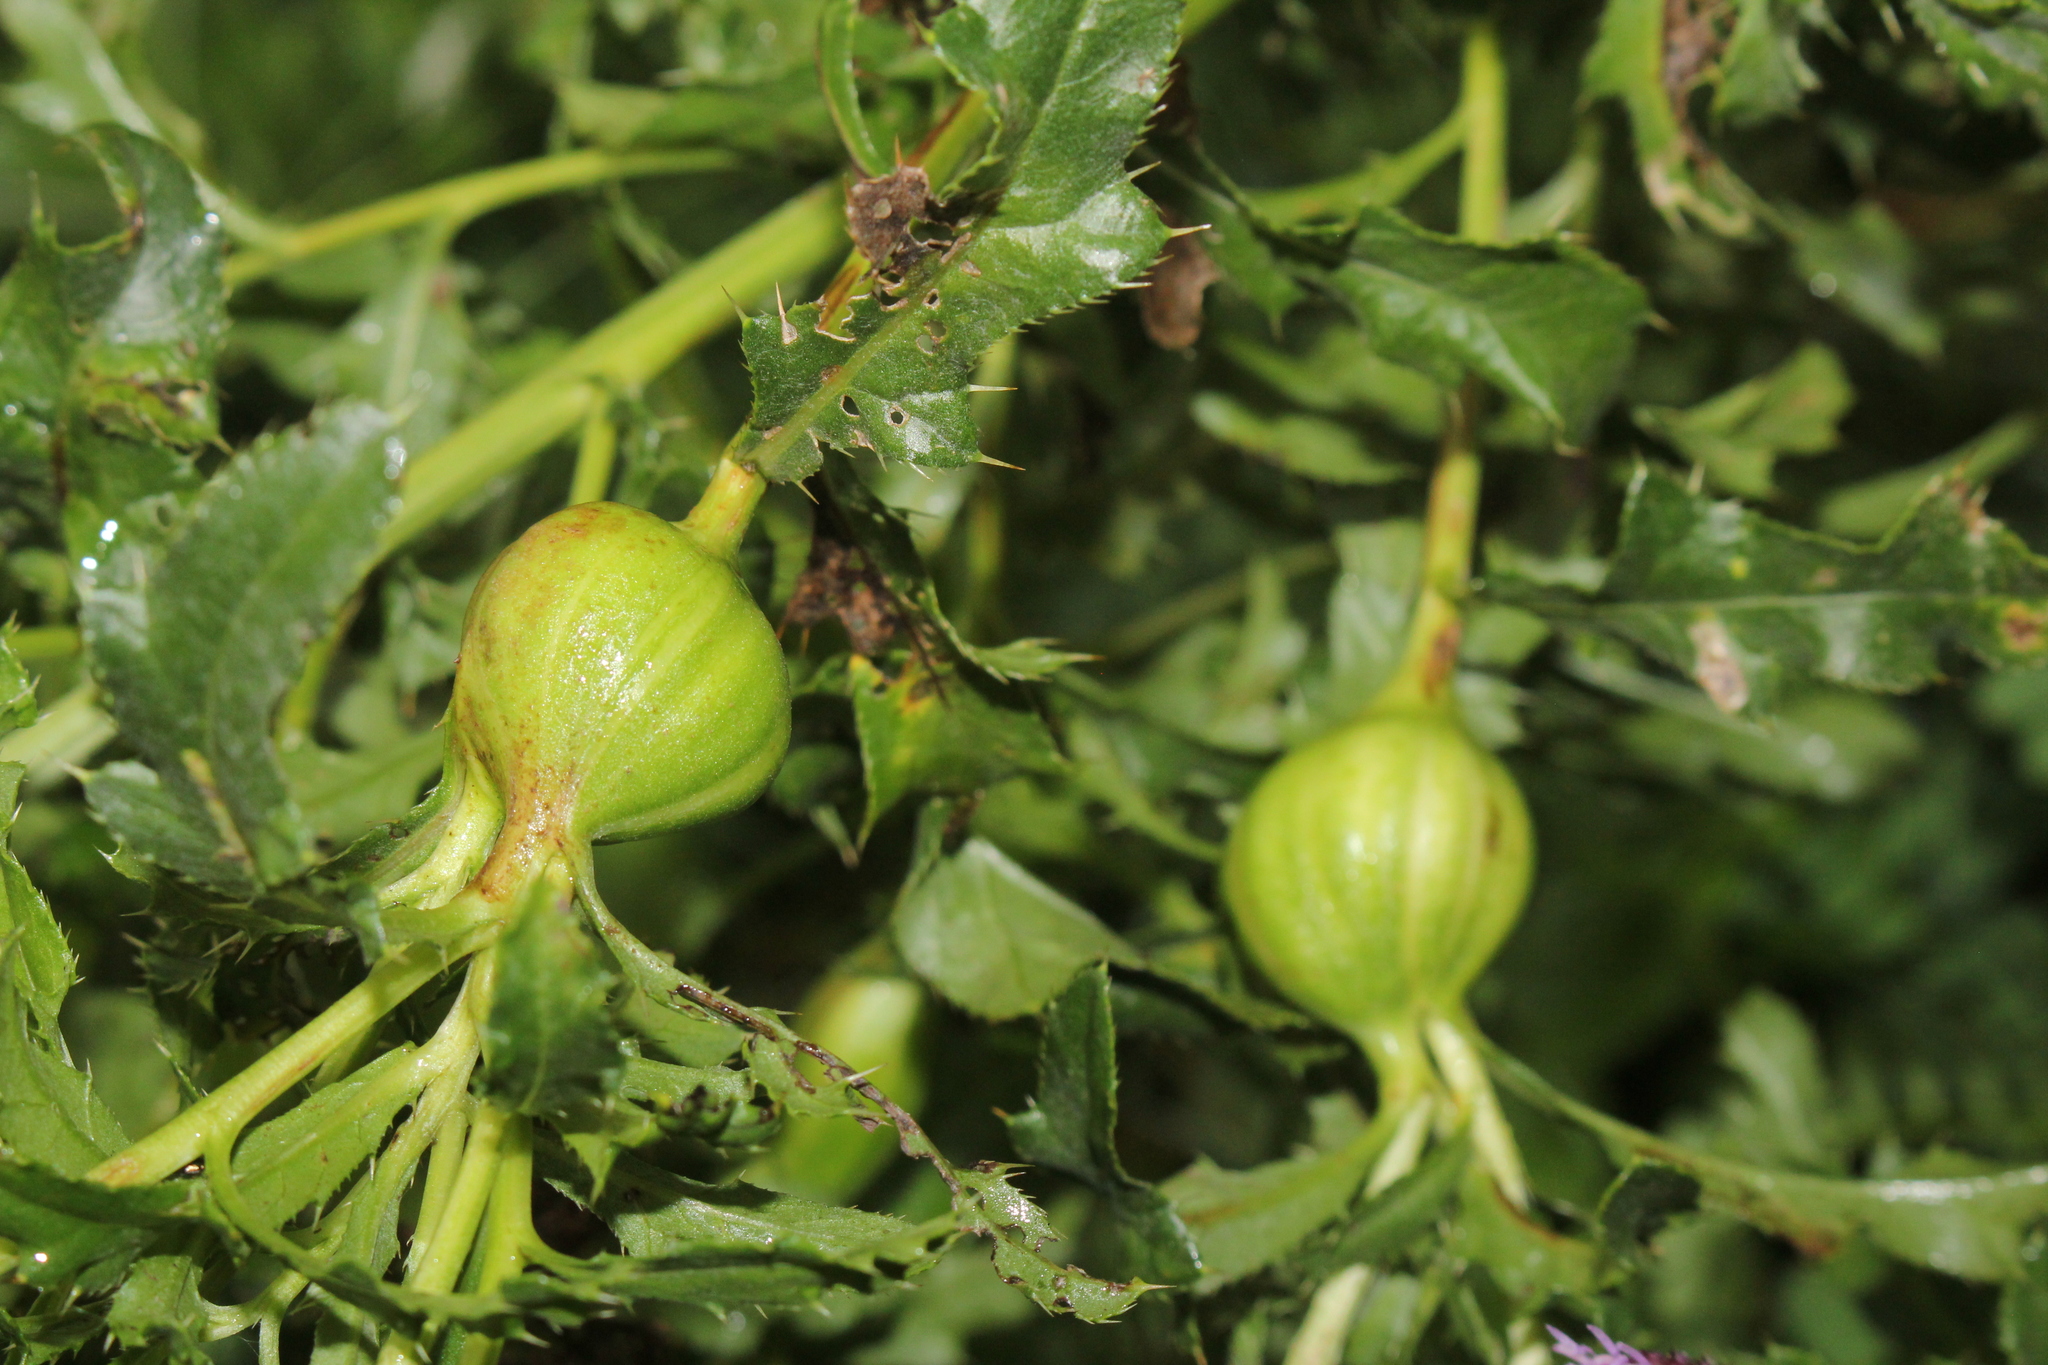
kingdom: Animalia
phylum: Arthropoda
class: Insecta
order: Diptera
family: Tephritidae
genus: Urophora
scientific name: Urophora cardui
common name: Fruit fly
